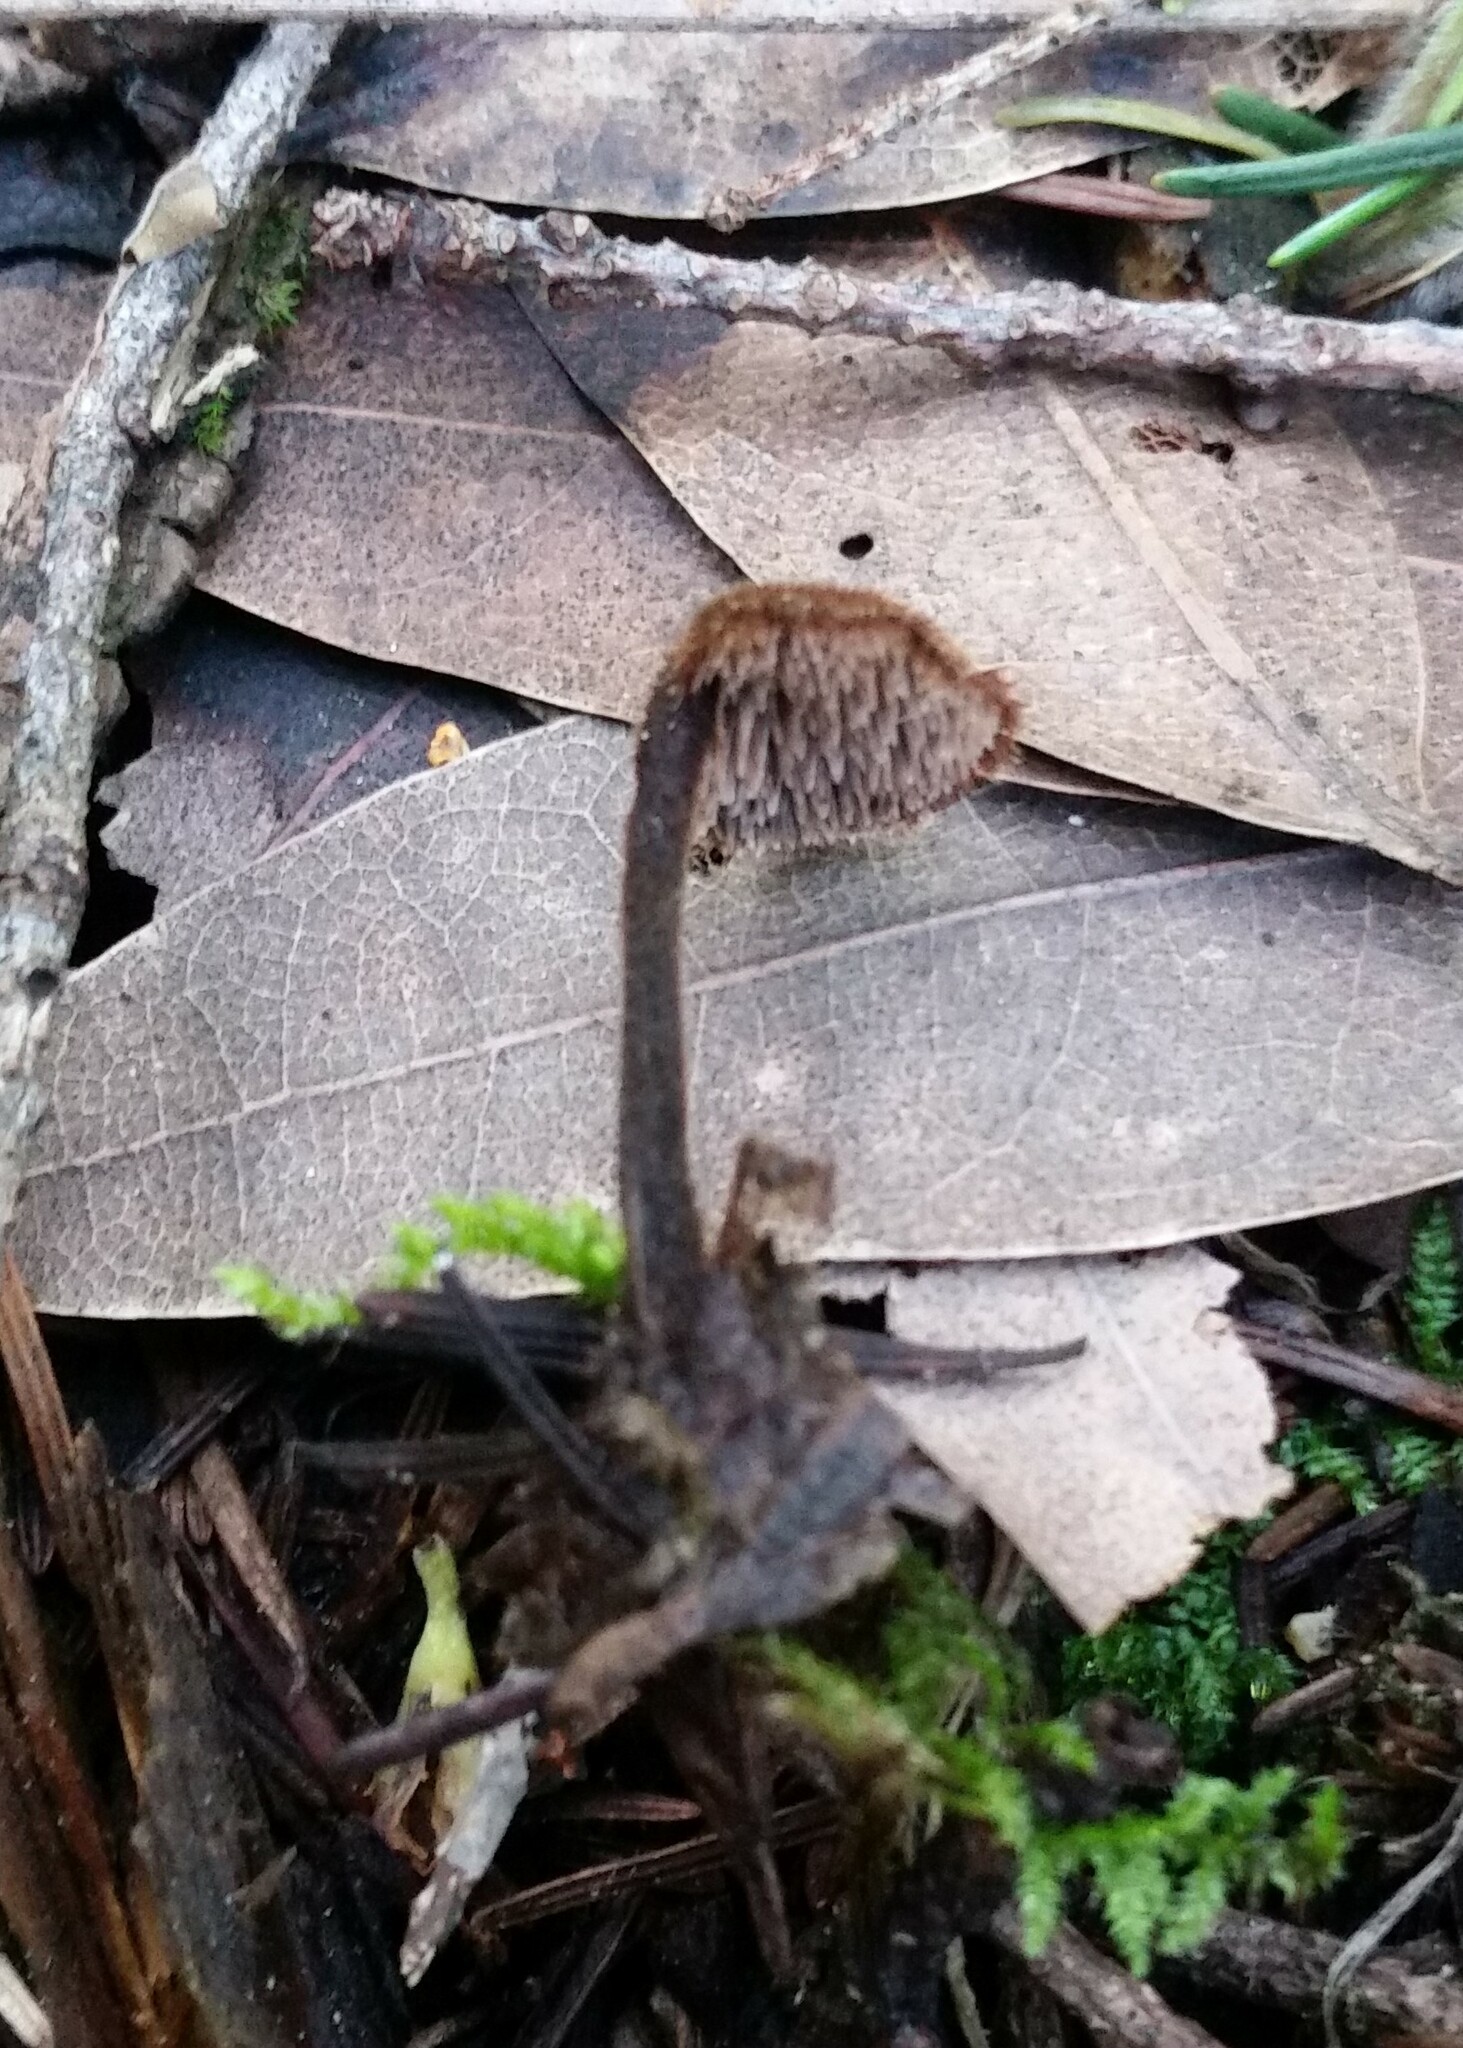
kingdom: Fungi
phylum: Basidiomycota
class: Agaricomycetes
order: Russulales
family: Auriscalpiaceae
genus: Auriscalpium
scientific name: Auriscalpium vulgare
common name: Earpick fungus
